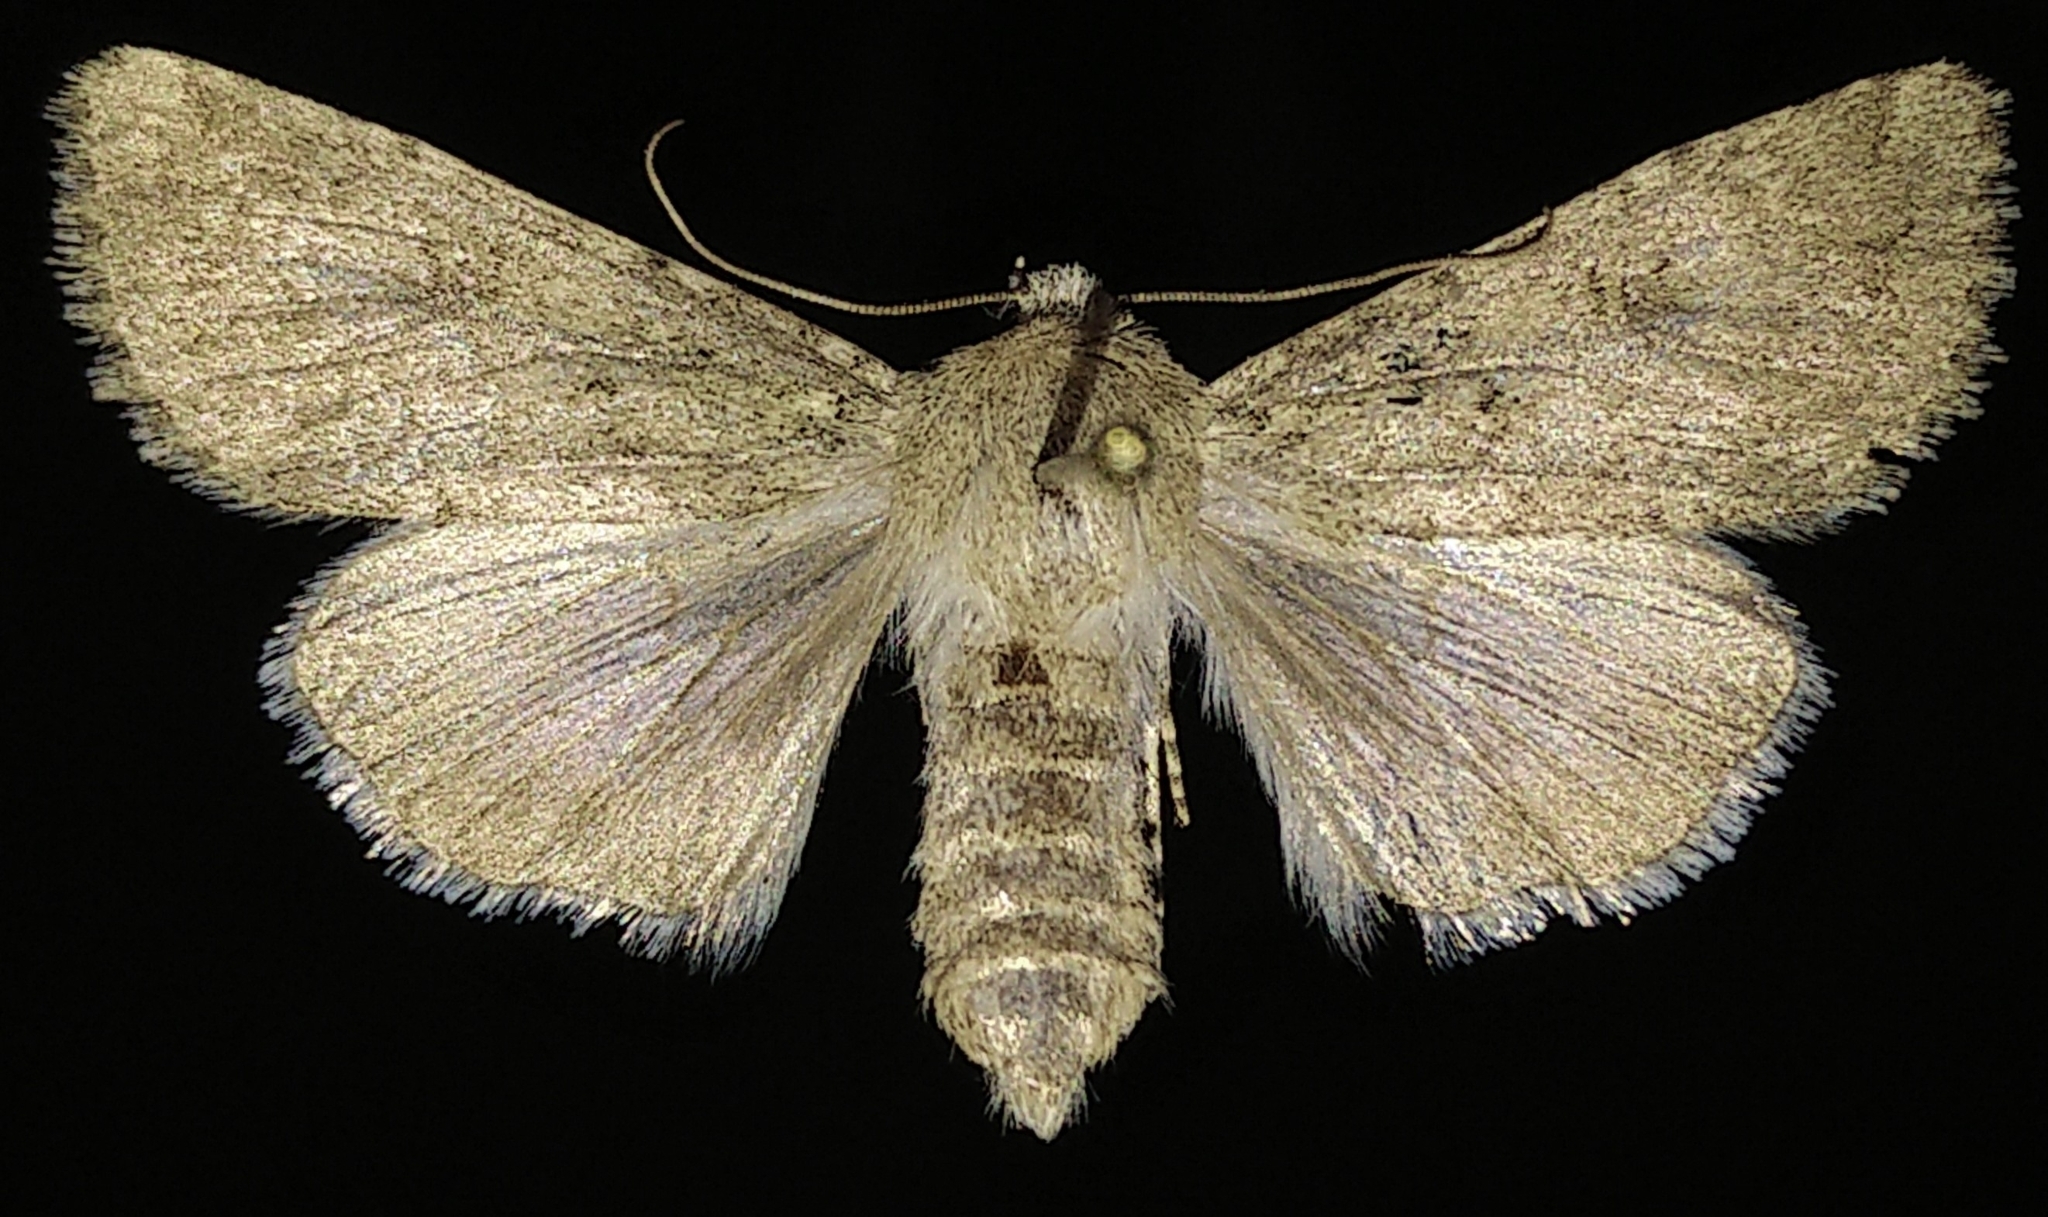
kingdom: Animalia
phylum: Arthropoda
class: Insecta
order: Lepidoptera
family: Noctuidae
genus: Trichoclea
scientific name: Trichoclea
